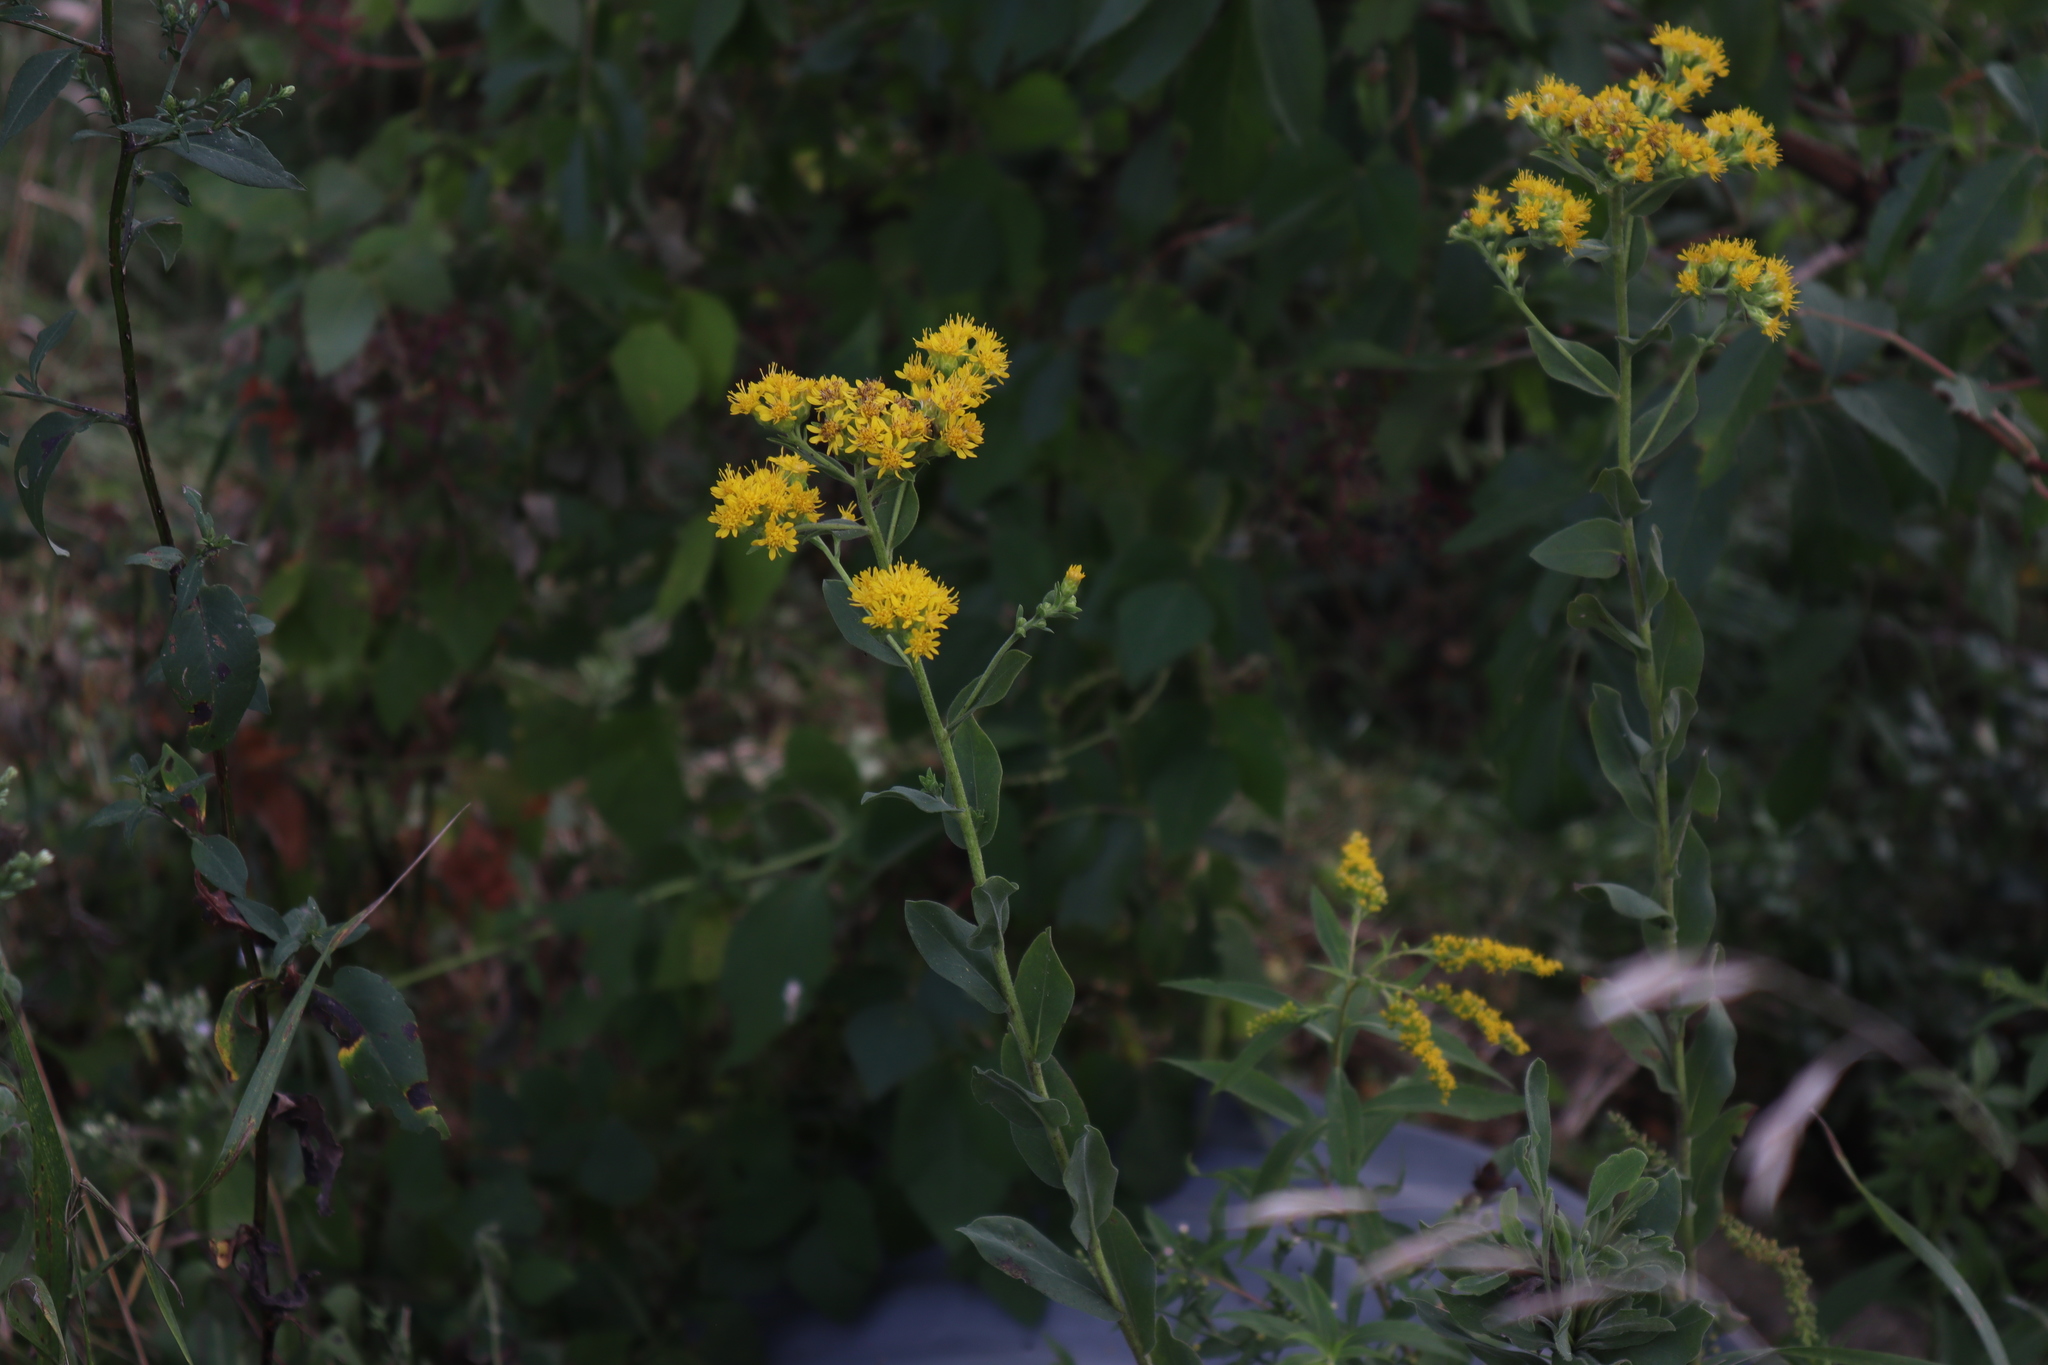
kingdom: Plantae
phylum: Tracheophyta
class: Magnoliopsida
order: Asterales
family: Asteraceae
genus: Solidago
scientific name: Solidago rigida
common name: Rigid goldenrod
